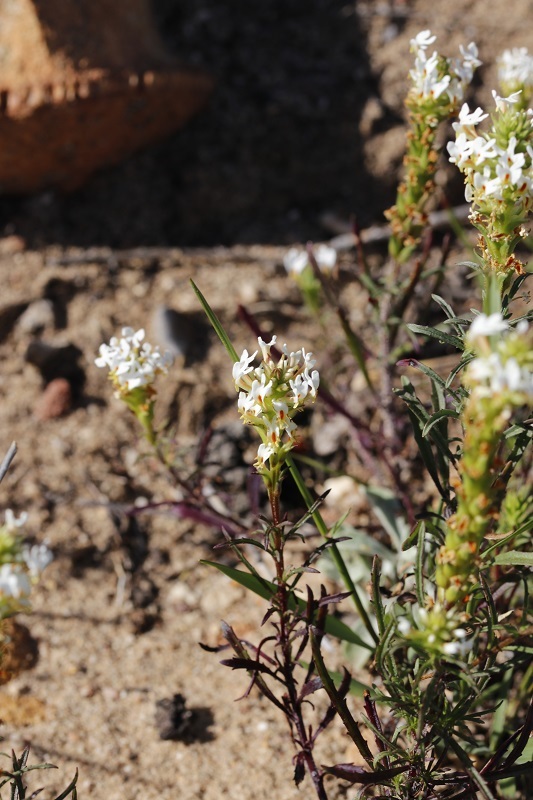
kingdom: Plantae
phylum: Tracheophyta
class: Magnoliopsida
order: Lamiales
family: Scrophulariaceae
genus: Hebenstretia
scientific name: Hebenstretia repens
